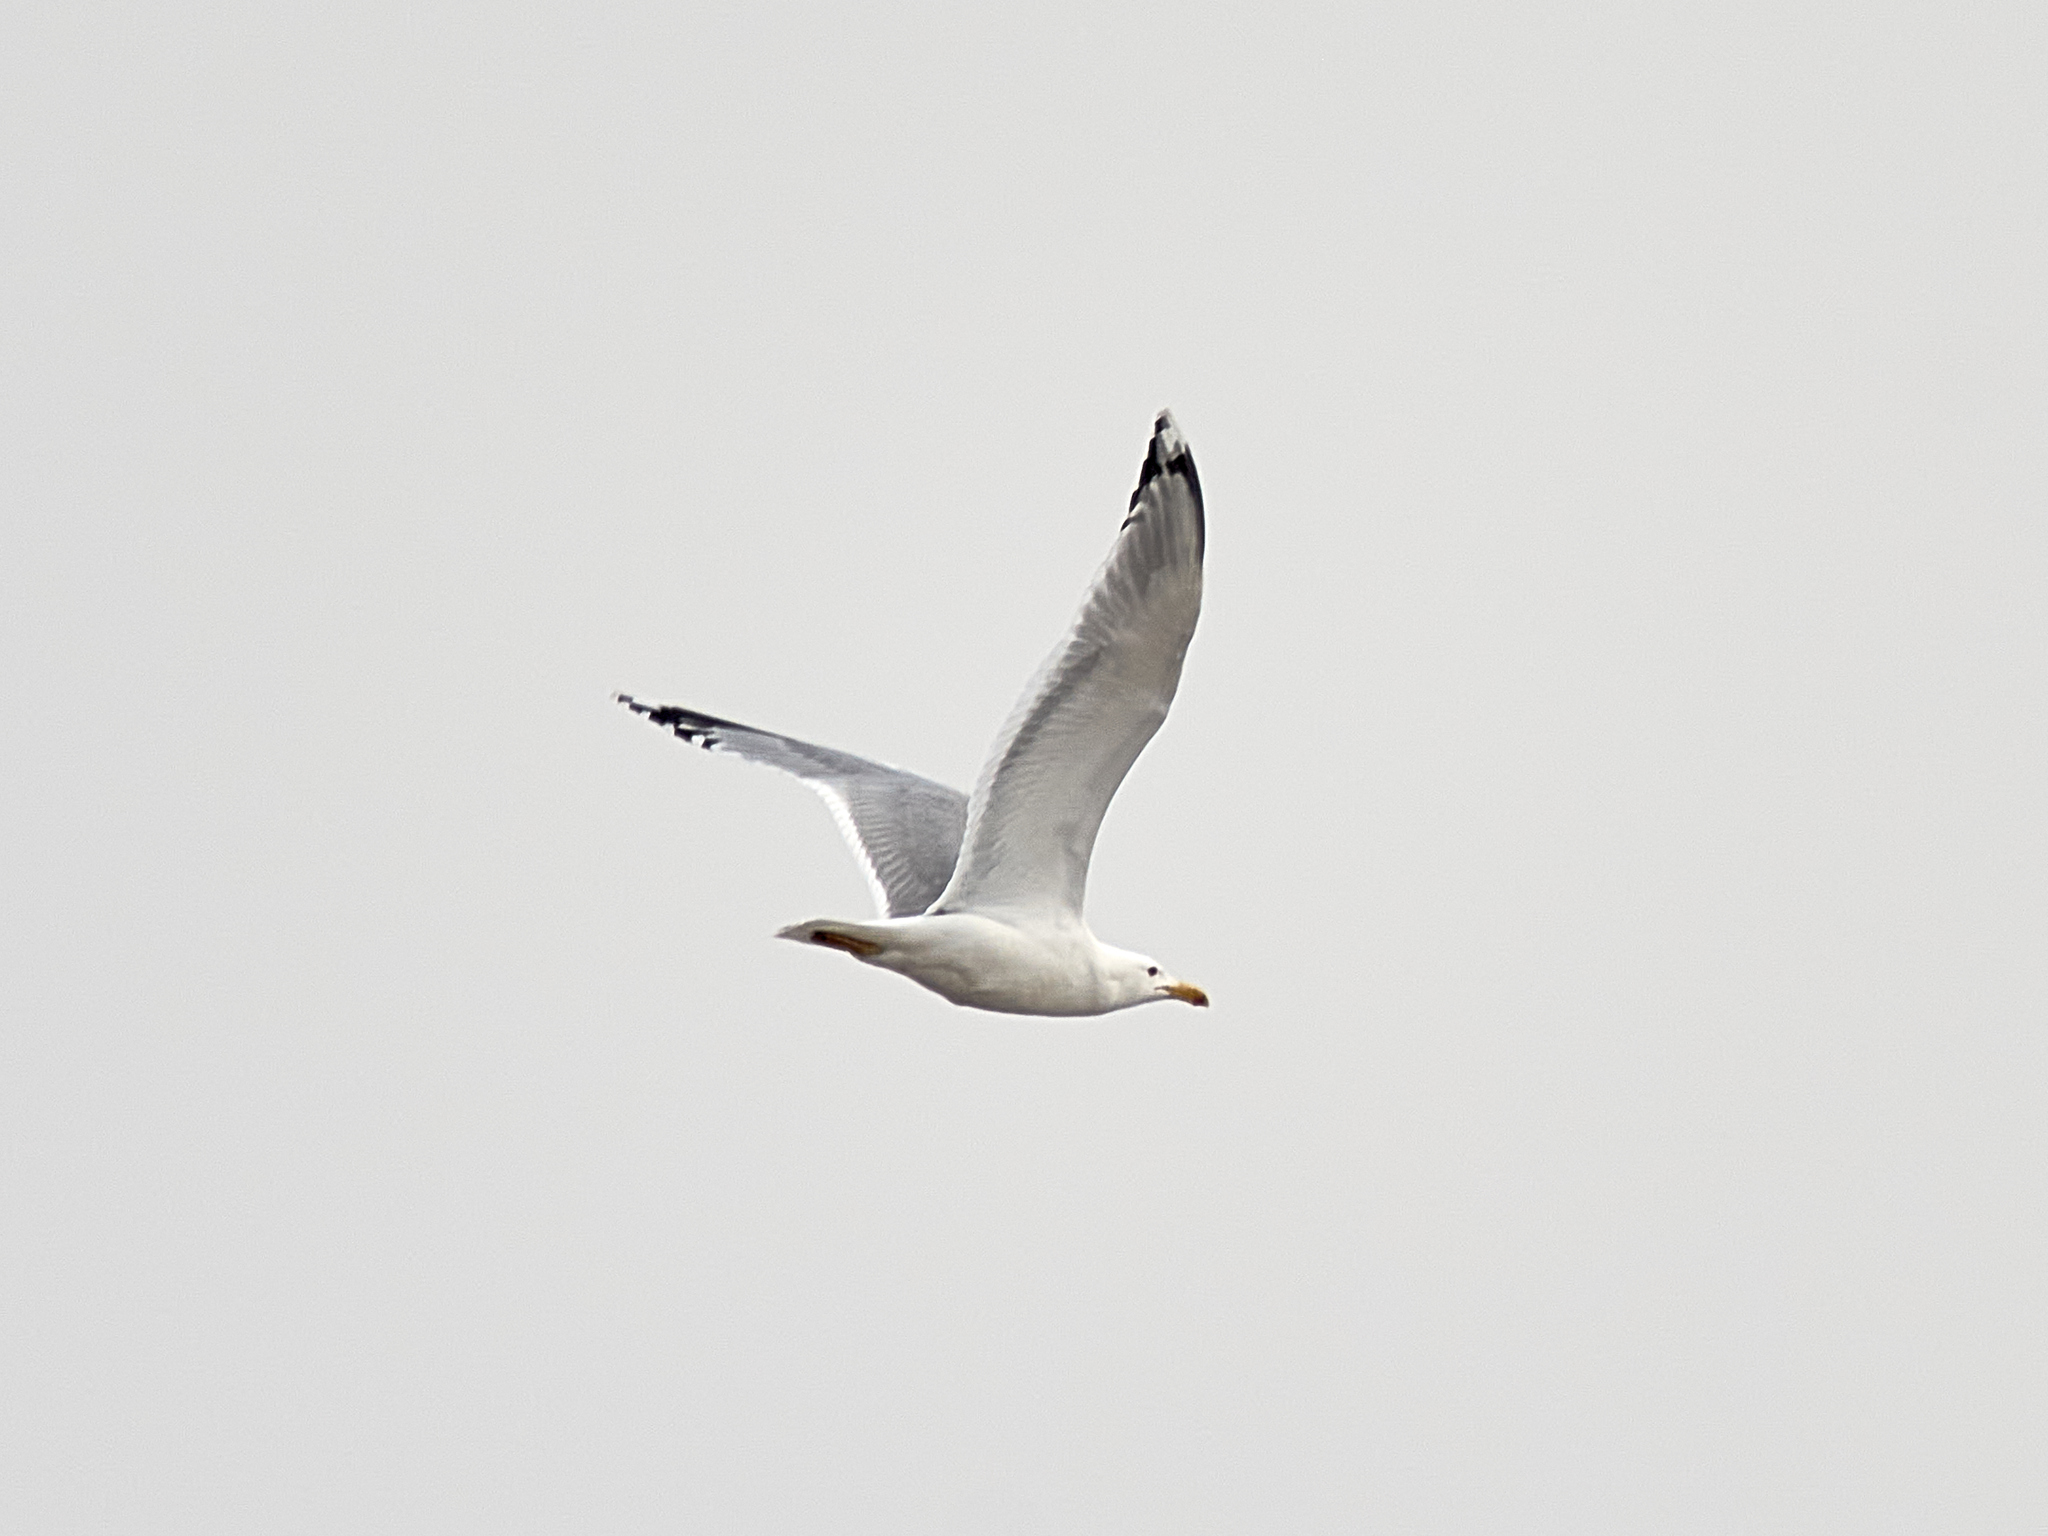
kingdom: Animalia
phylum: Chordata
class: Aves
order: Charadriiformes
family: Laridae
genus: Larus
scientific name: Larus cachinnans
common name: Caspian gull
